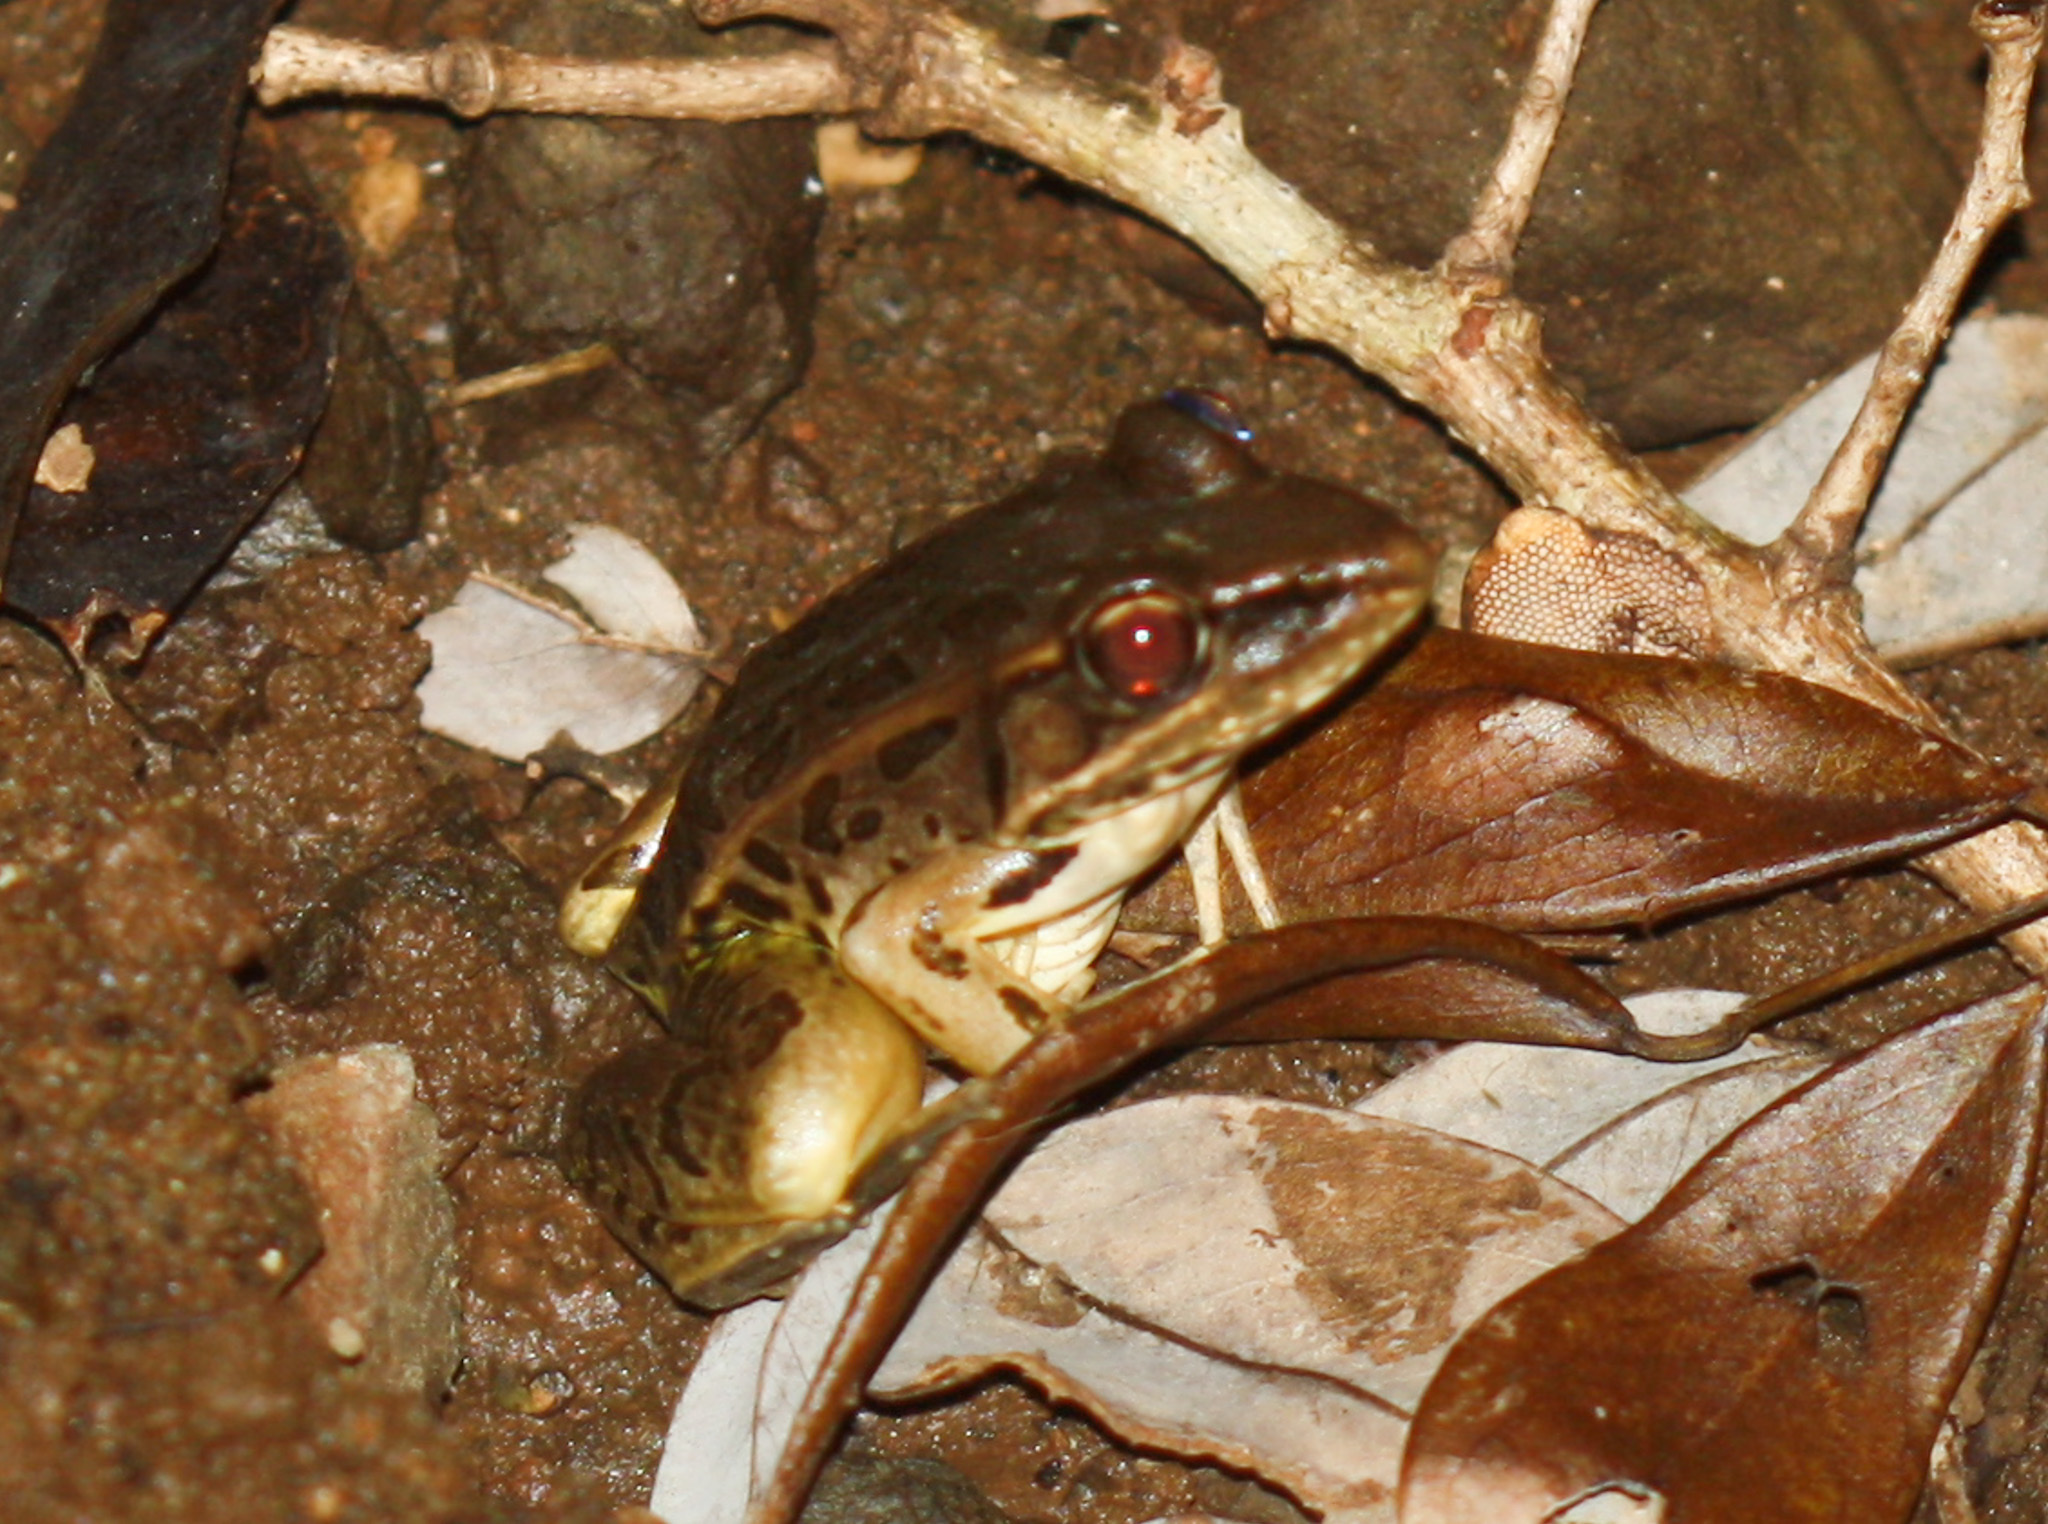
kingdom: Animalia
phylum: Chordata
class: Amphibia
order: Anura
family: Ranidae
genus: Lithobates
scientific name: Lithobates forreri
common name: Forrer's grass frog
